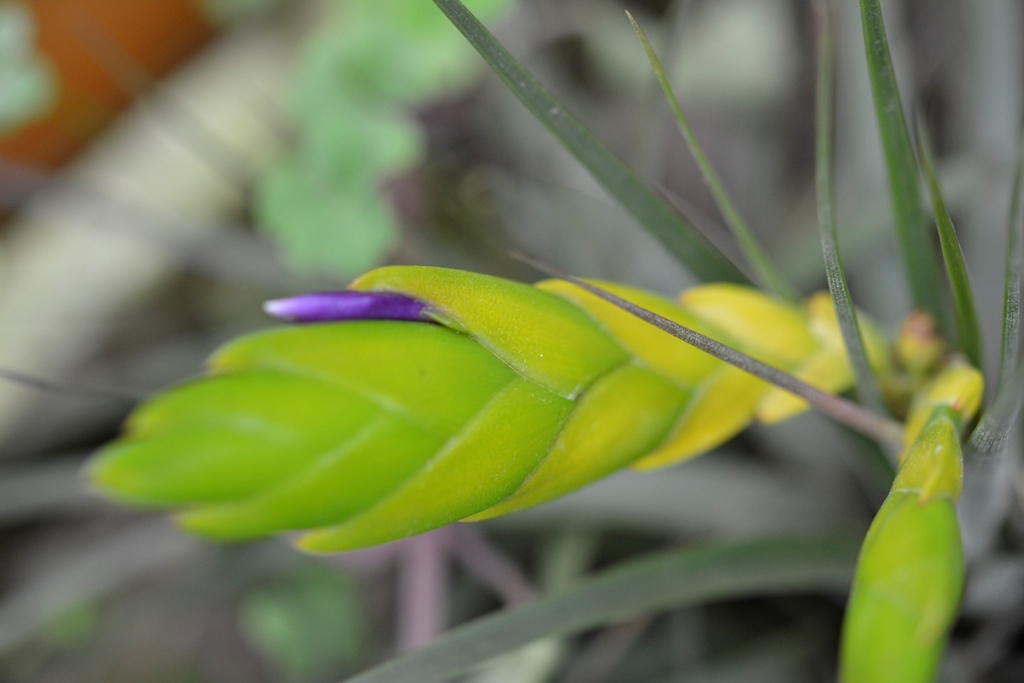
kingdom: Plantae
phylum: Tracheophyta
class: Liliopsida
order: Poales
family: Bromeliaceae
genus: Tillandsia
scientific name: Tillandsia flavobracteata
